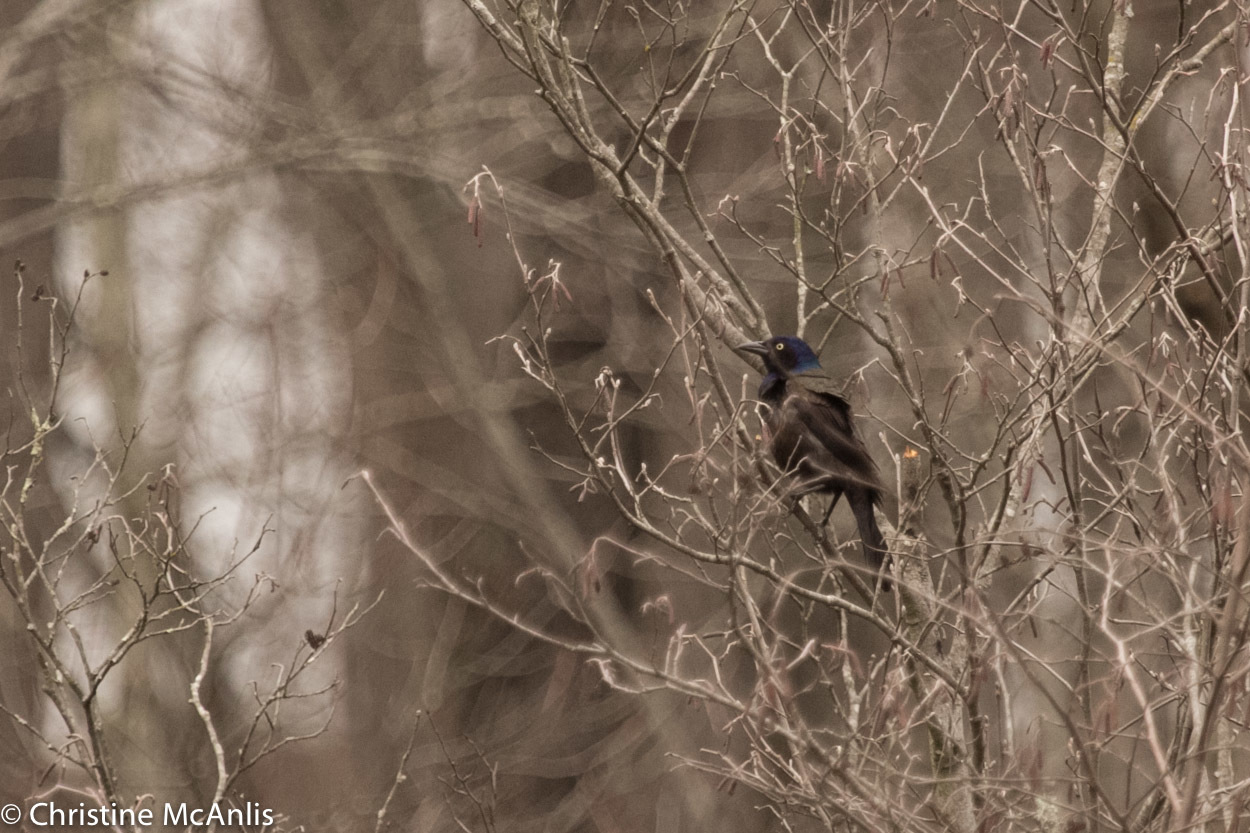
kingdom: Animalia
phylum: Chordata
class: Aves
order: Passeriformes
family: Icteridae
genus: Quiscalus
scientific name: Quiscalus quiscula
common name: Common grackle
